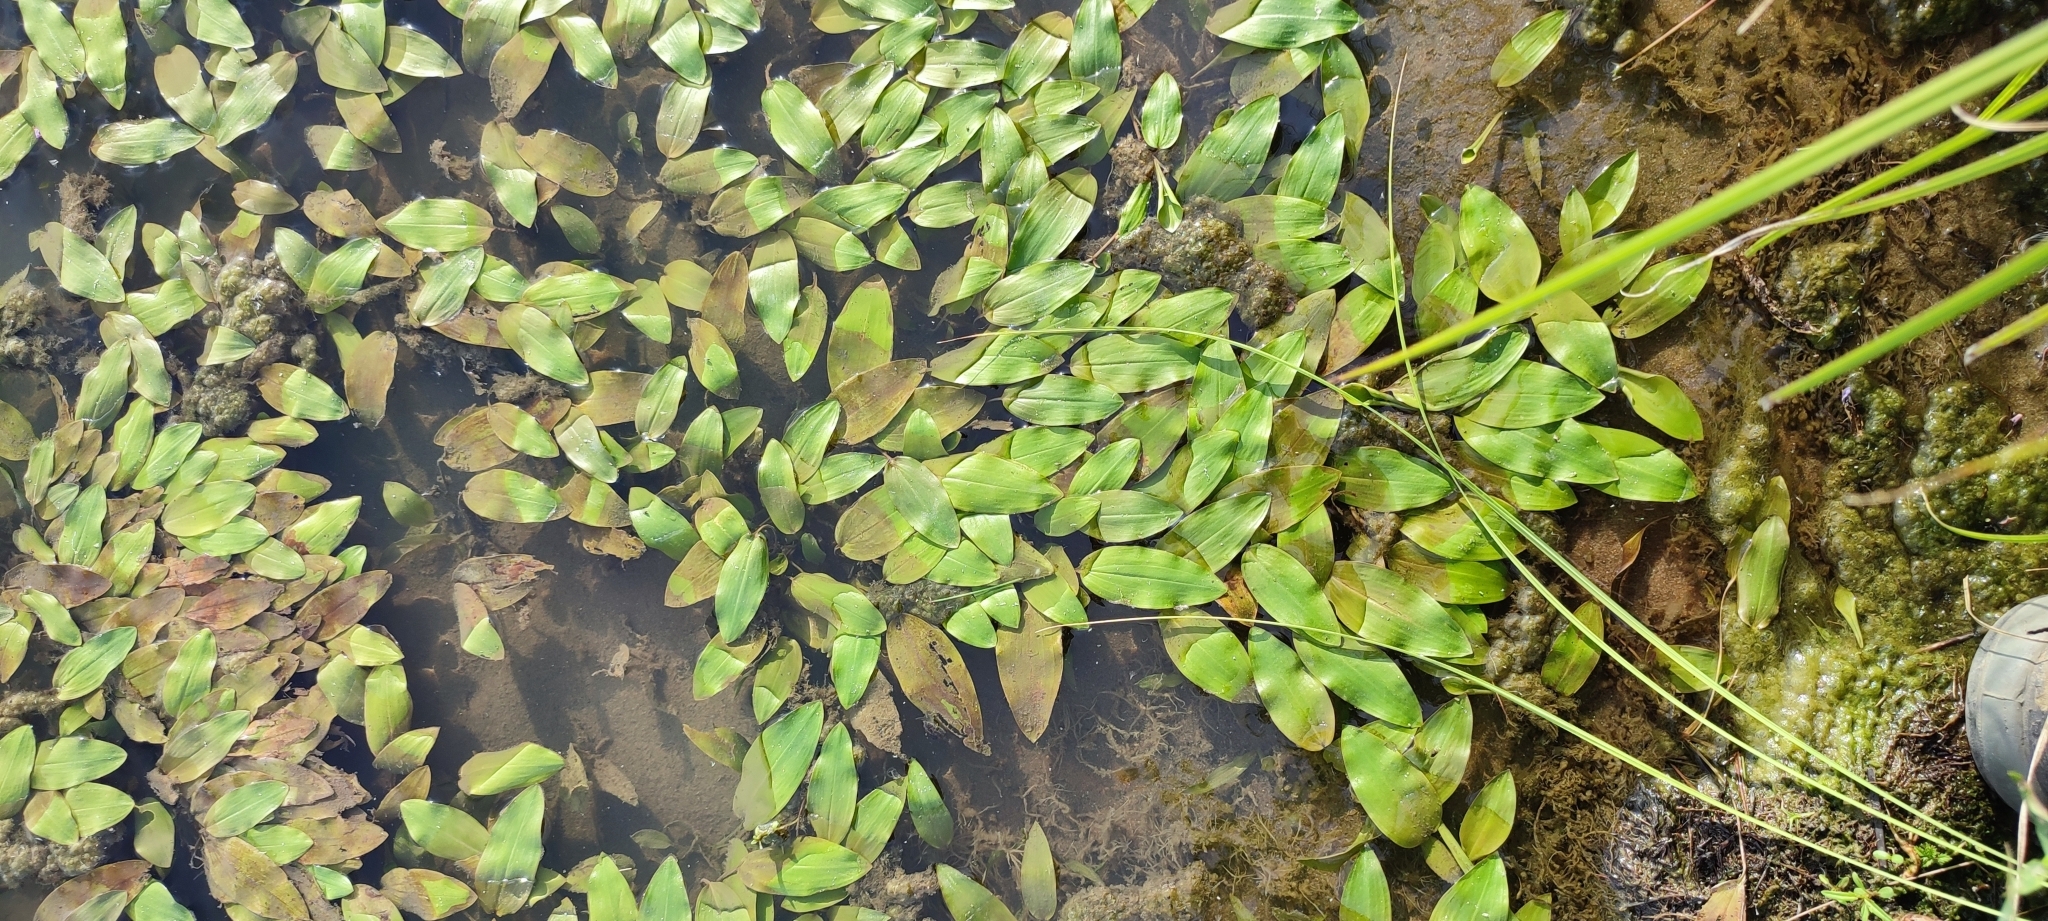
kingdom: Plantae
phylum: Tracheophyta
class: Liliopsida
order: Alismatales
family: Potamogetonaceae
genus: Potamogeton
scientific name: Potamogeton natans
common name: Broad-leaved pondweed
